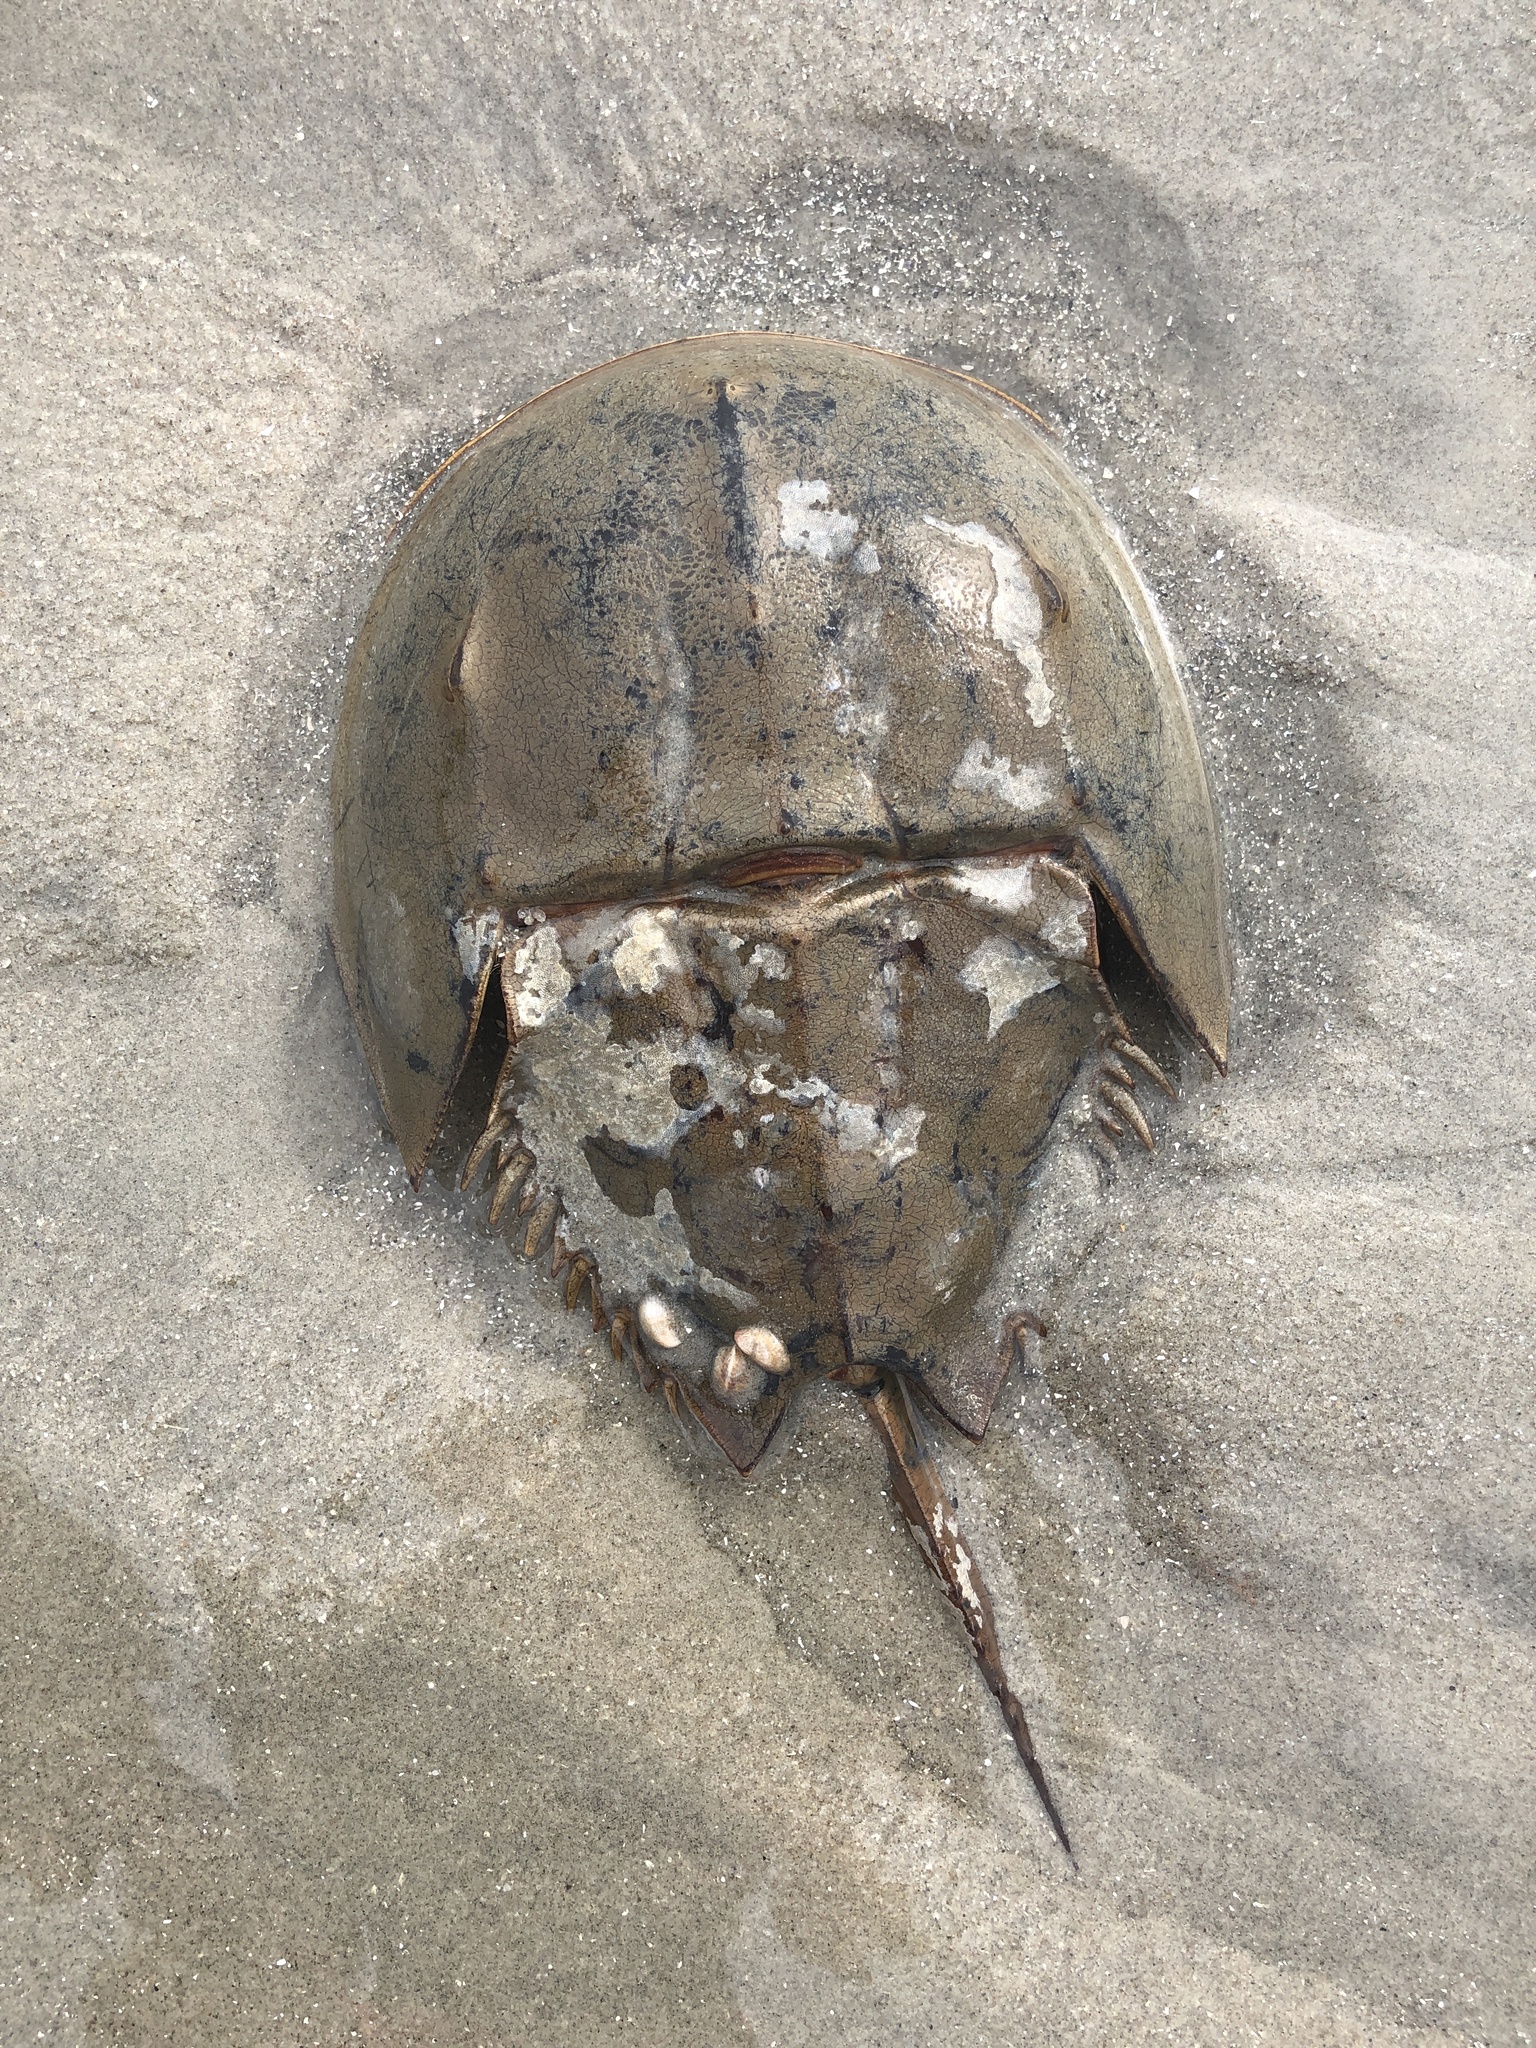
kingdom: Animalia
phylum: Arthropoda
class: Merostomata
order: Xiphosurida
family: Limulidae
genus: Limulus
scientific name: Limulus polyphemus
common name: Horseshoe crab
